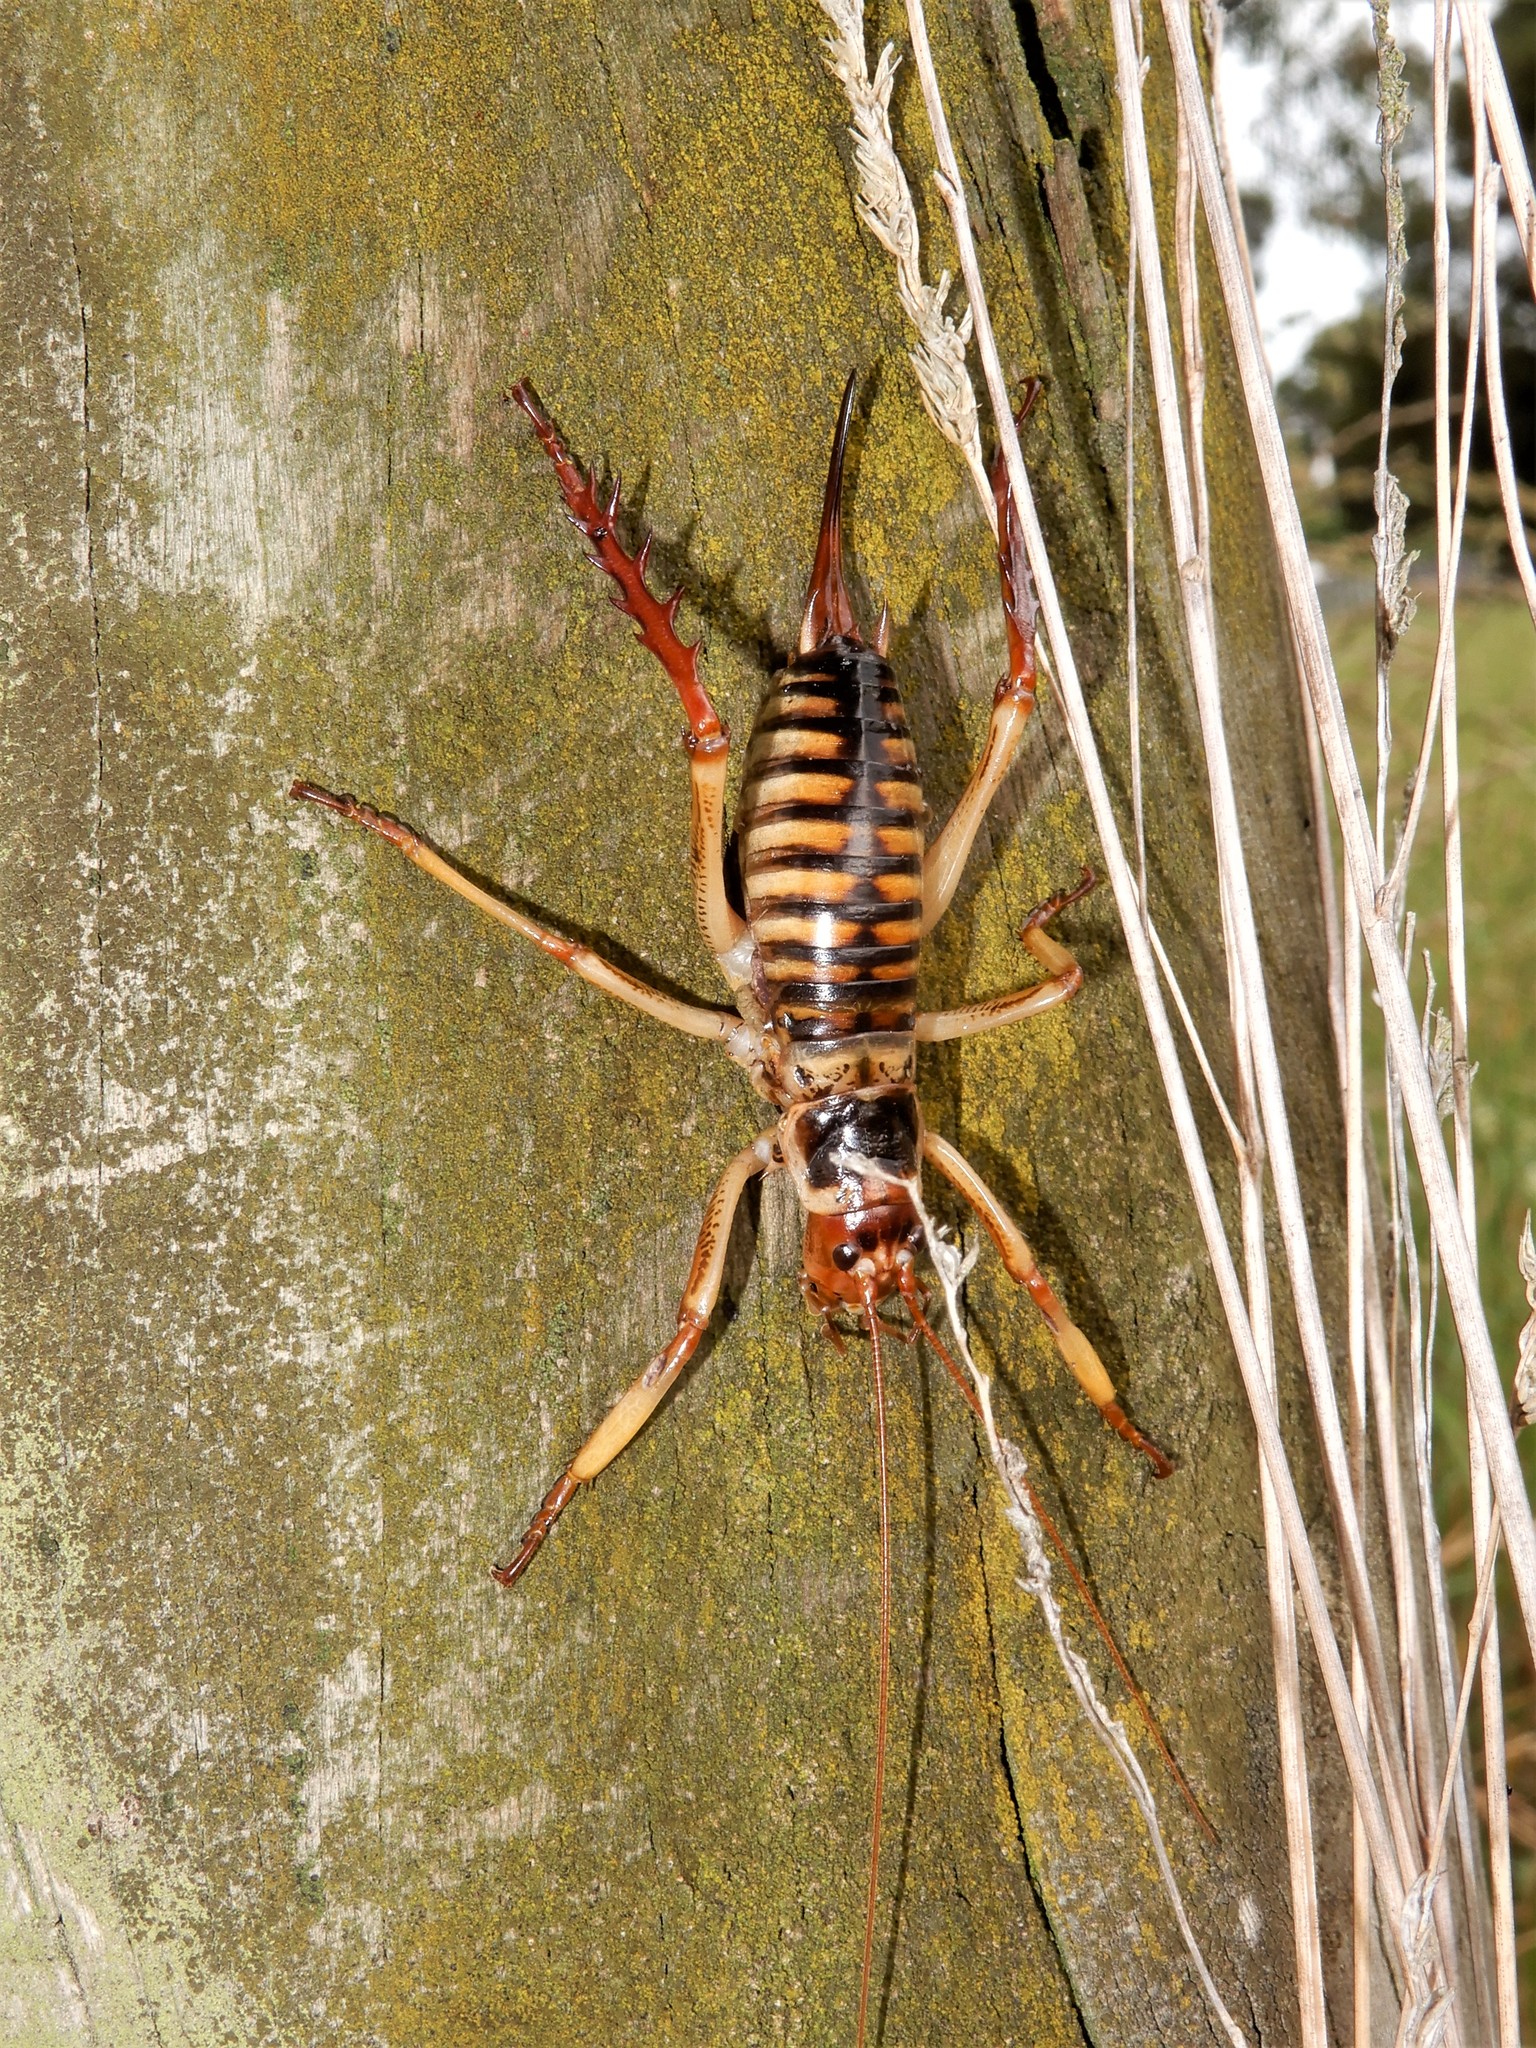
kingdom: Animalia
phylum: Arthropoda
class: Insecta
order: Orthoptera
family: Anostostomatidae
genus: Hemideina
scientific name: Hemideina crassidens
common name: Wellington tree weta
